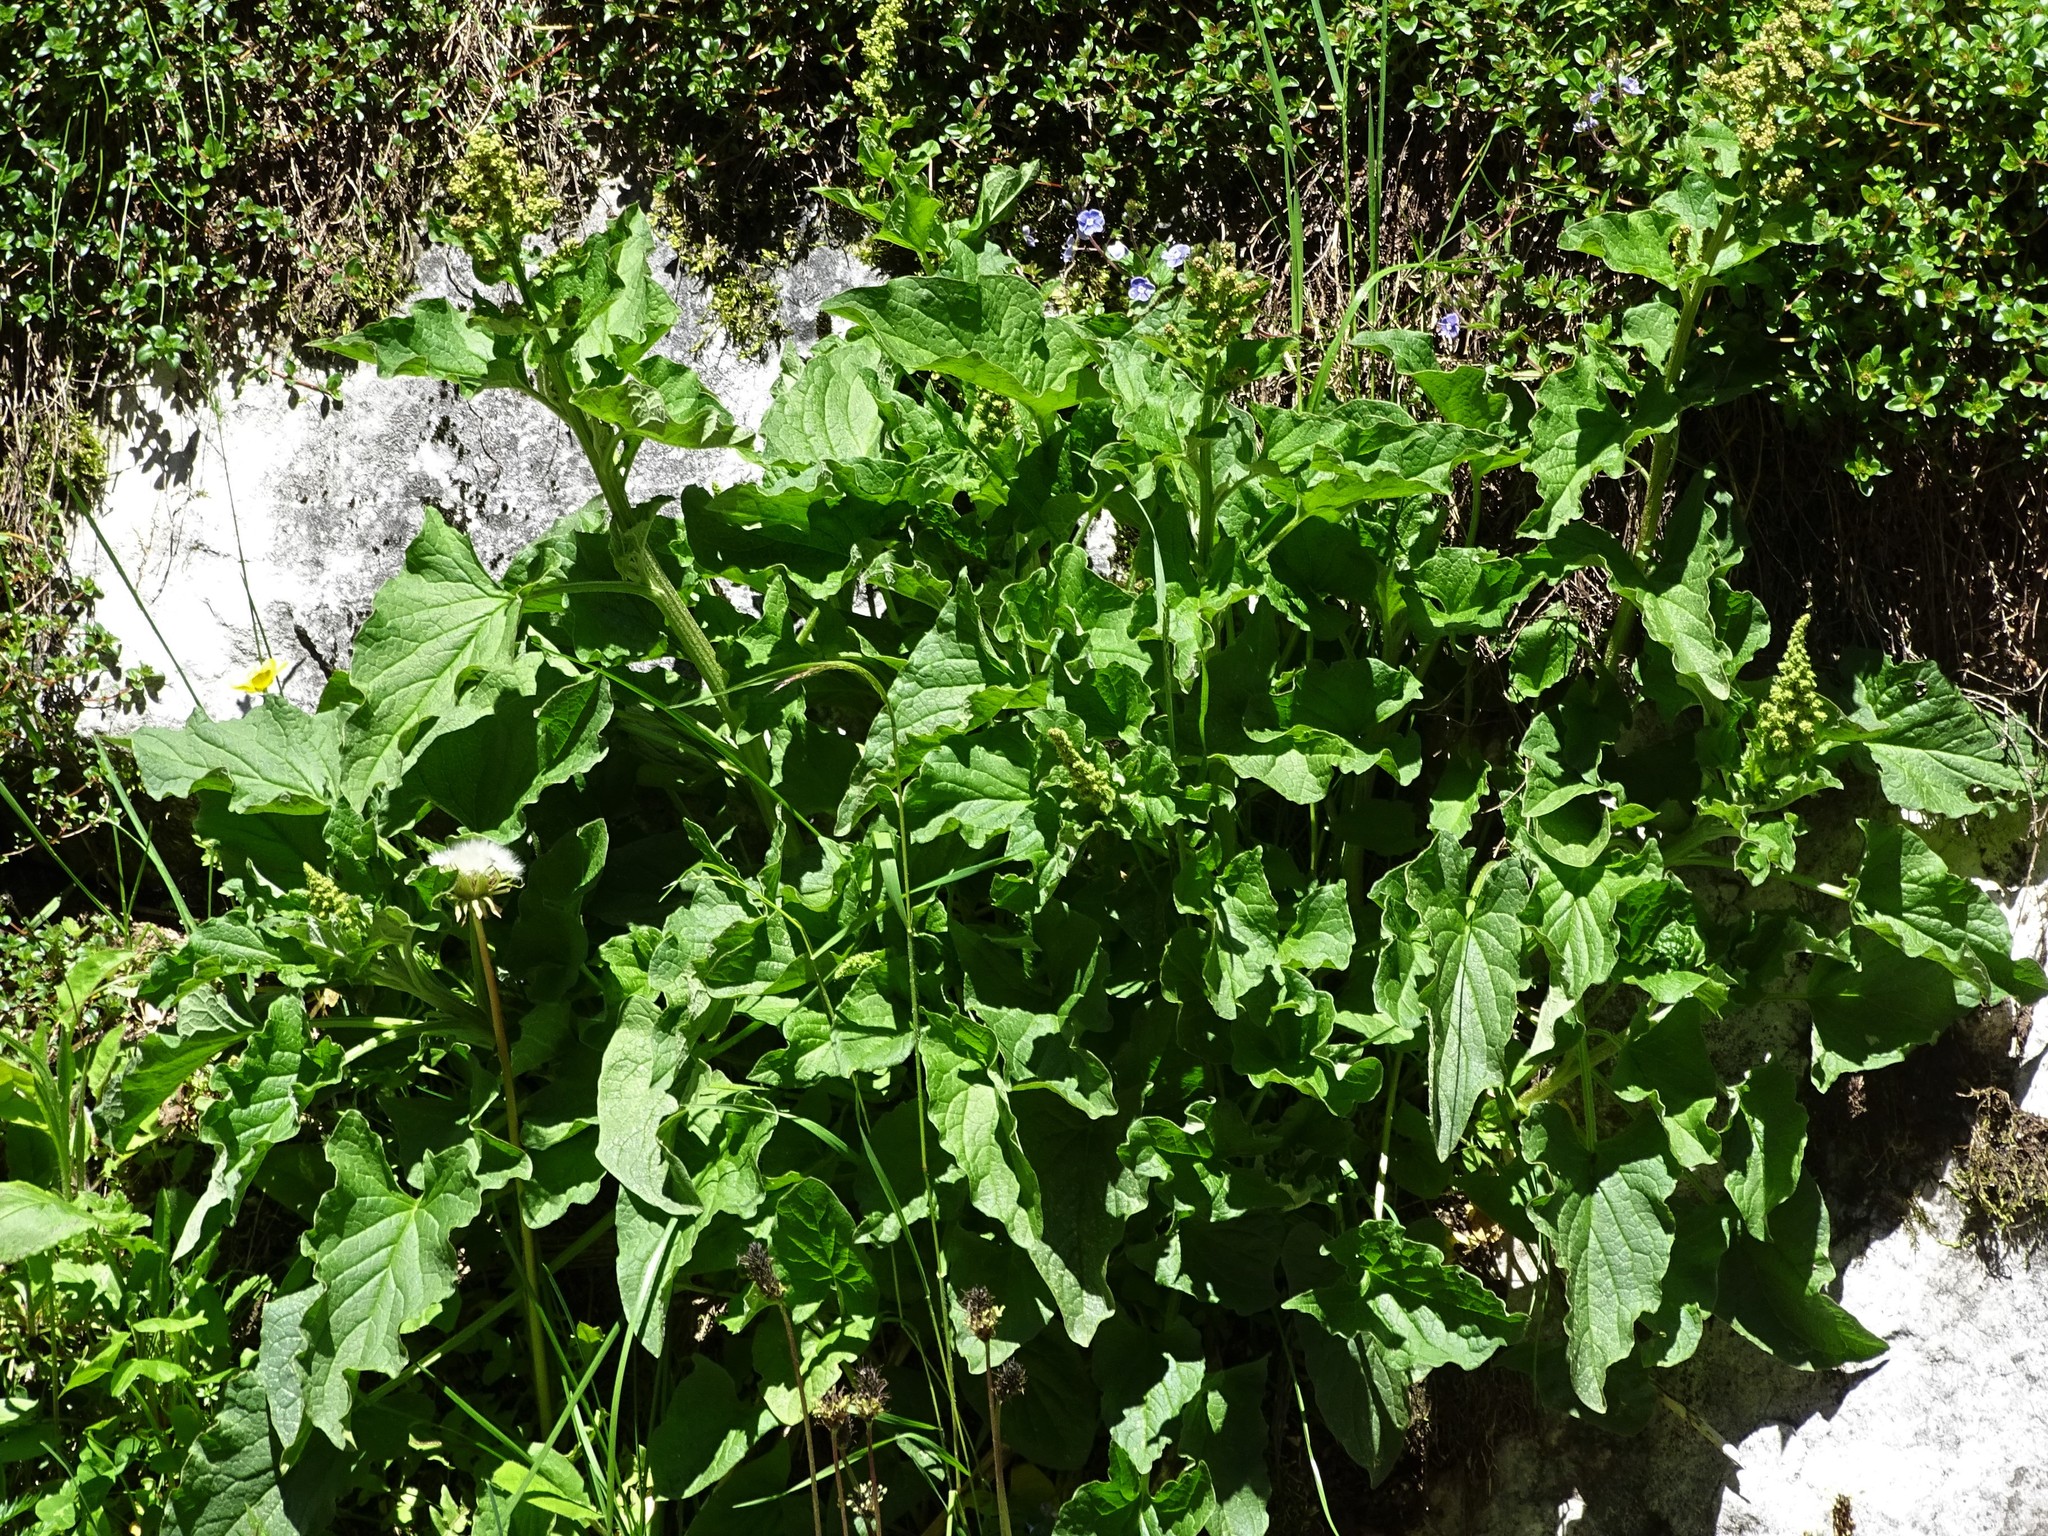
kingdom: Plantae
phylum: Tracheophyta
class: Magnoliopsida
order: Caryophyllales
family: Amaranthaceae
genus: Blitum
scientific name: Blitum bonus-henricus
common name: Good king henry
